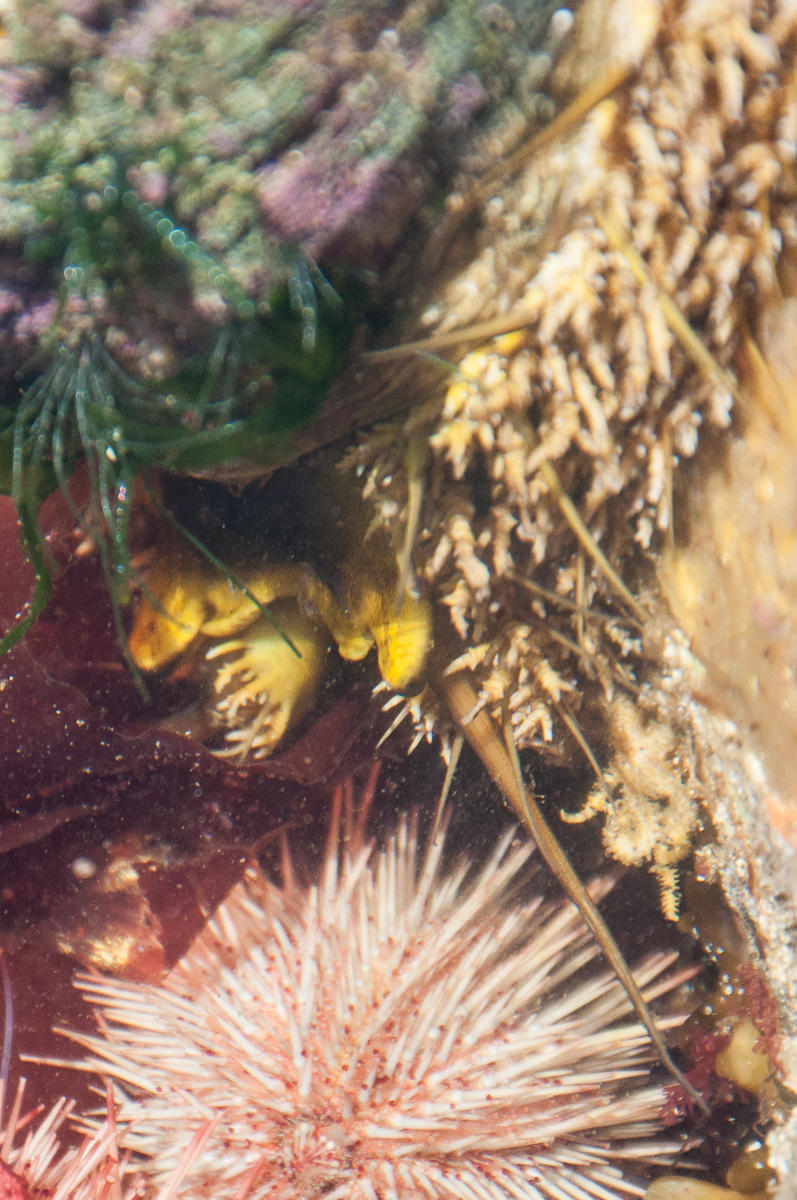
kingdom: Animalia
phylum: Mollusca
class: Gastropoda
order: Lepetellida
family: Haliotidae
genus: Haliotis
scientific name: Haliotis midae
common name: Perlemoen
